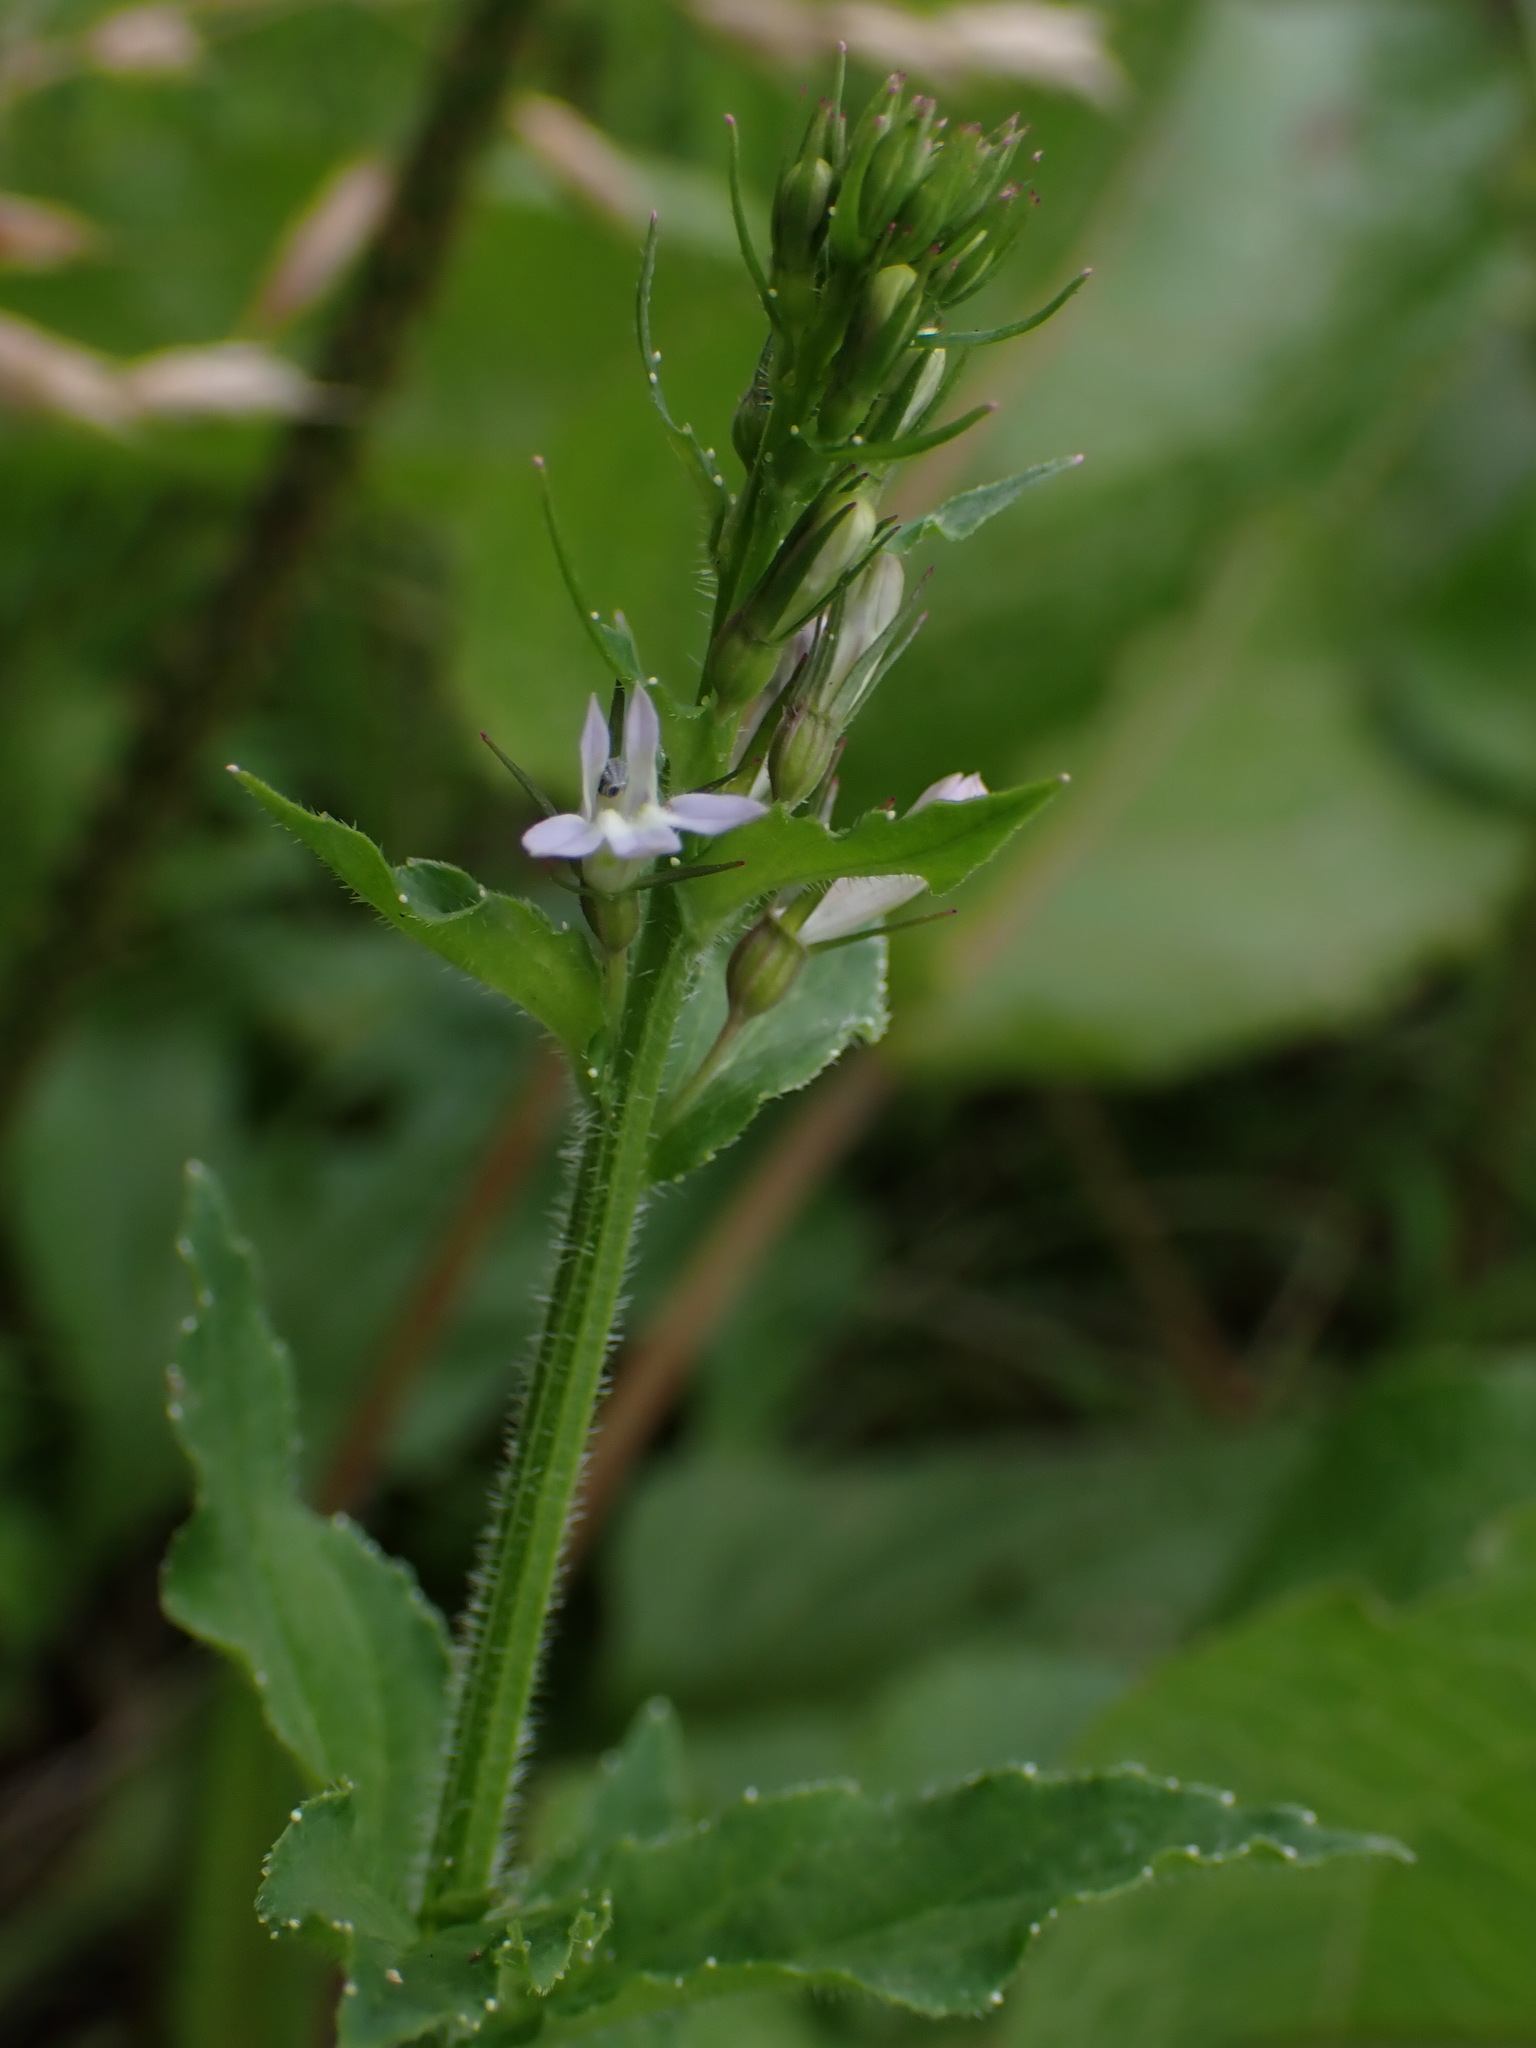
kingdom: Plantae
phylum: Tracheophyta
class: Magnoliopsida
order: Asterales
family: Campanulaceae
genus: Lobelia
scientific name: Lobelia inflata
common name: Indian tobacco
